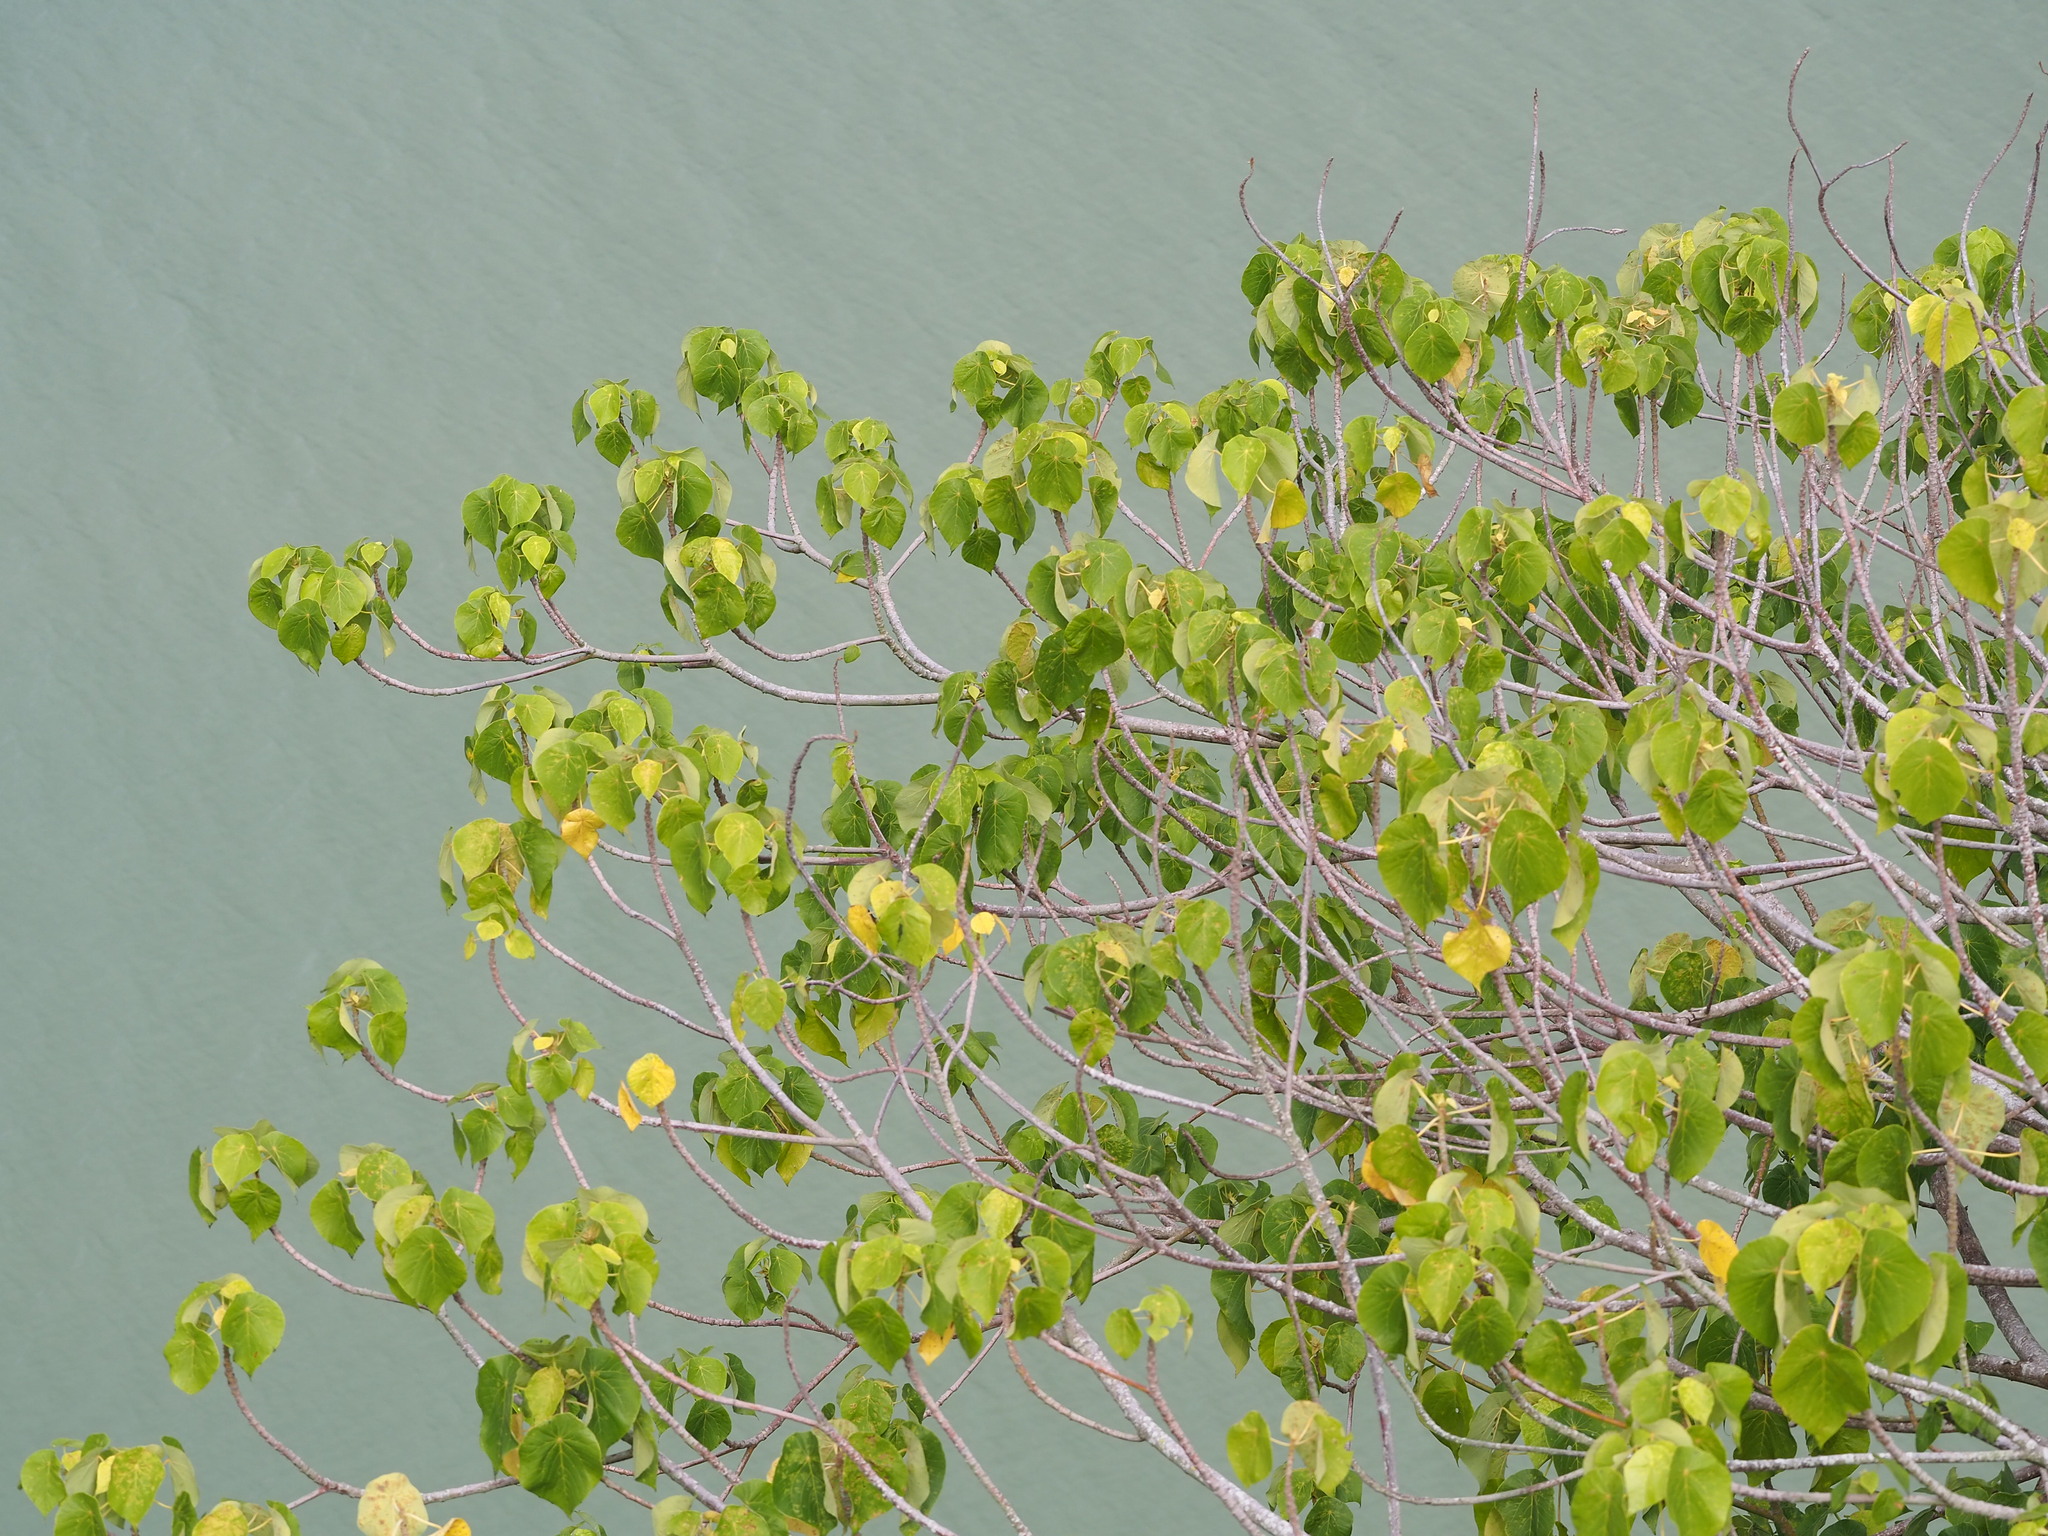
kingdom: Plantae
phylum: Tracheophyta
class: Magnoliopsida
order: Malpighiales
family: Euphorbiaceae
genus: Macaranga
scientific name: Macaranga tanarius
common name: Parasol leaf tree
